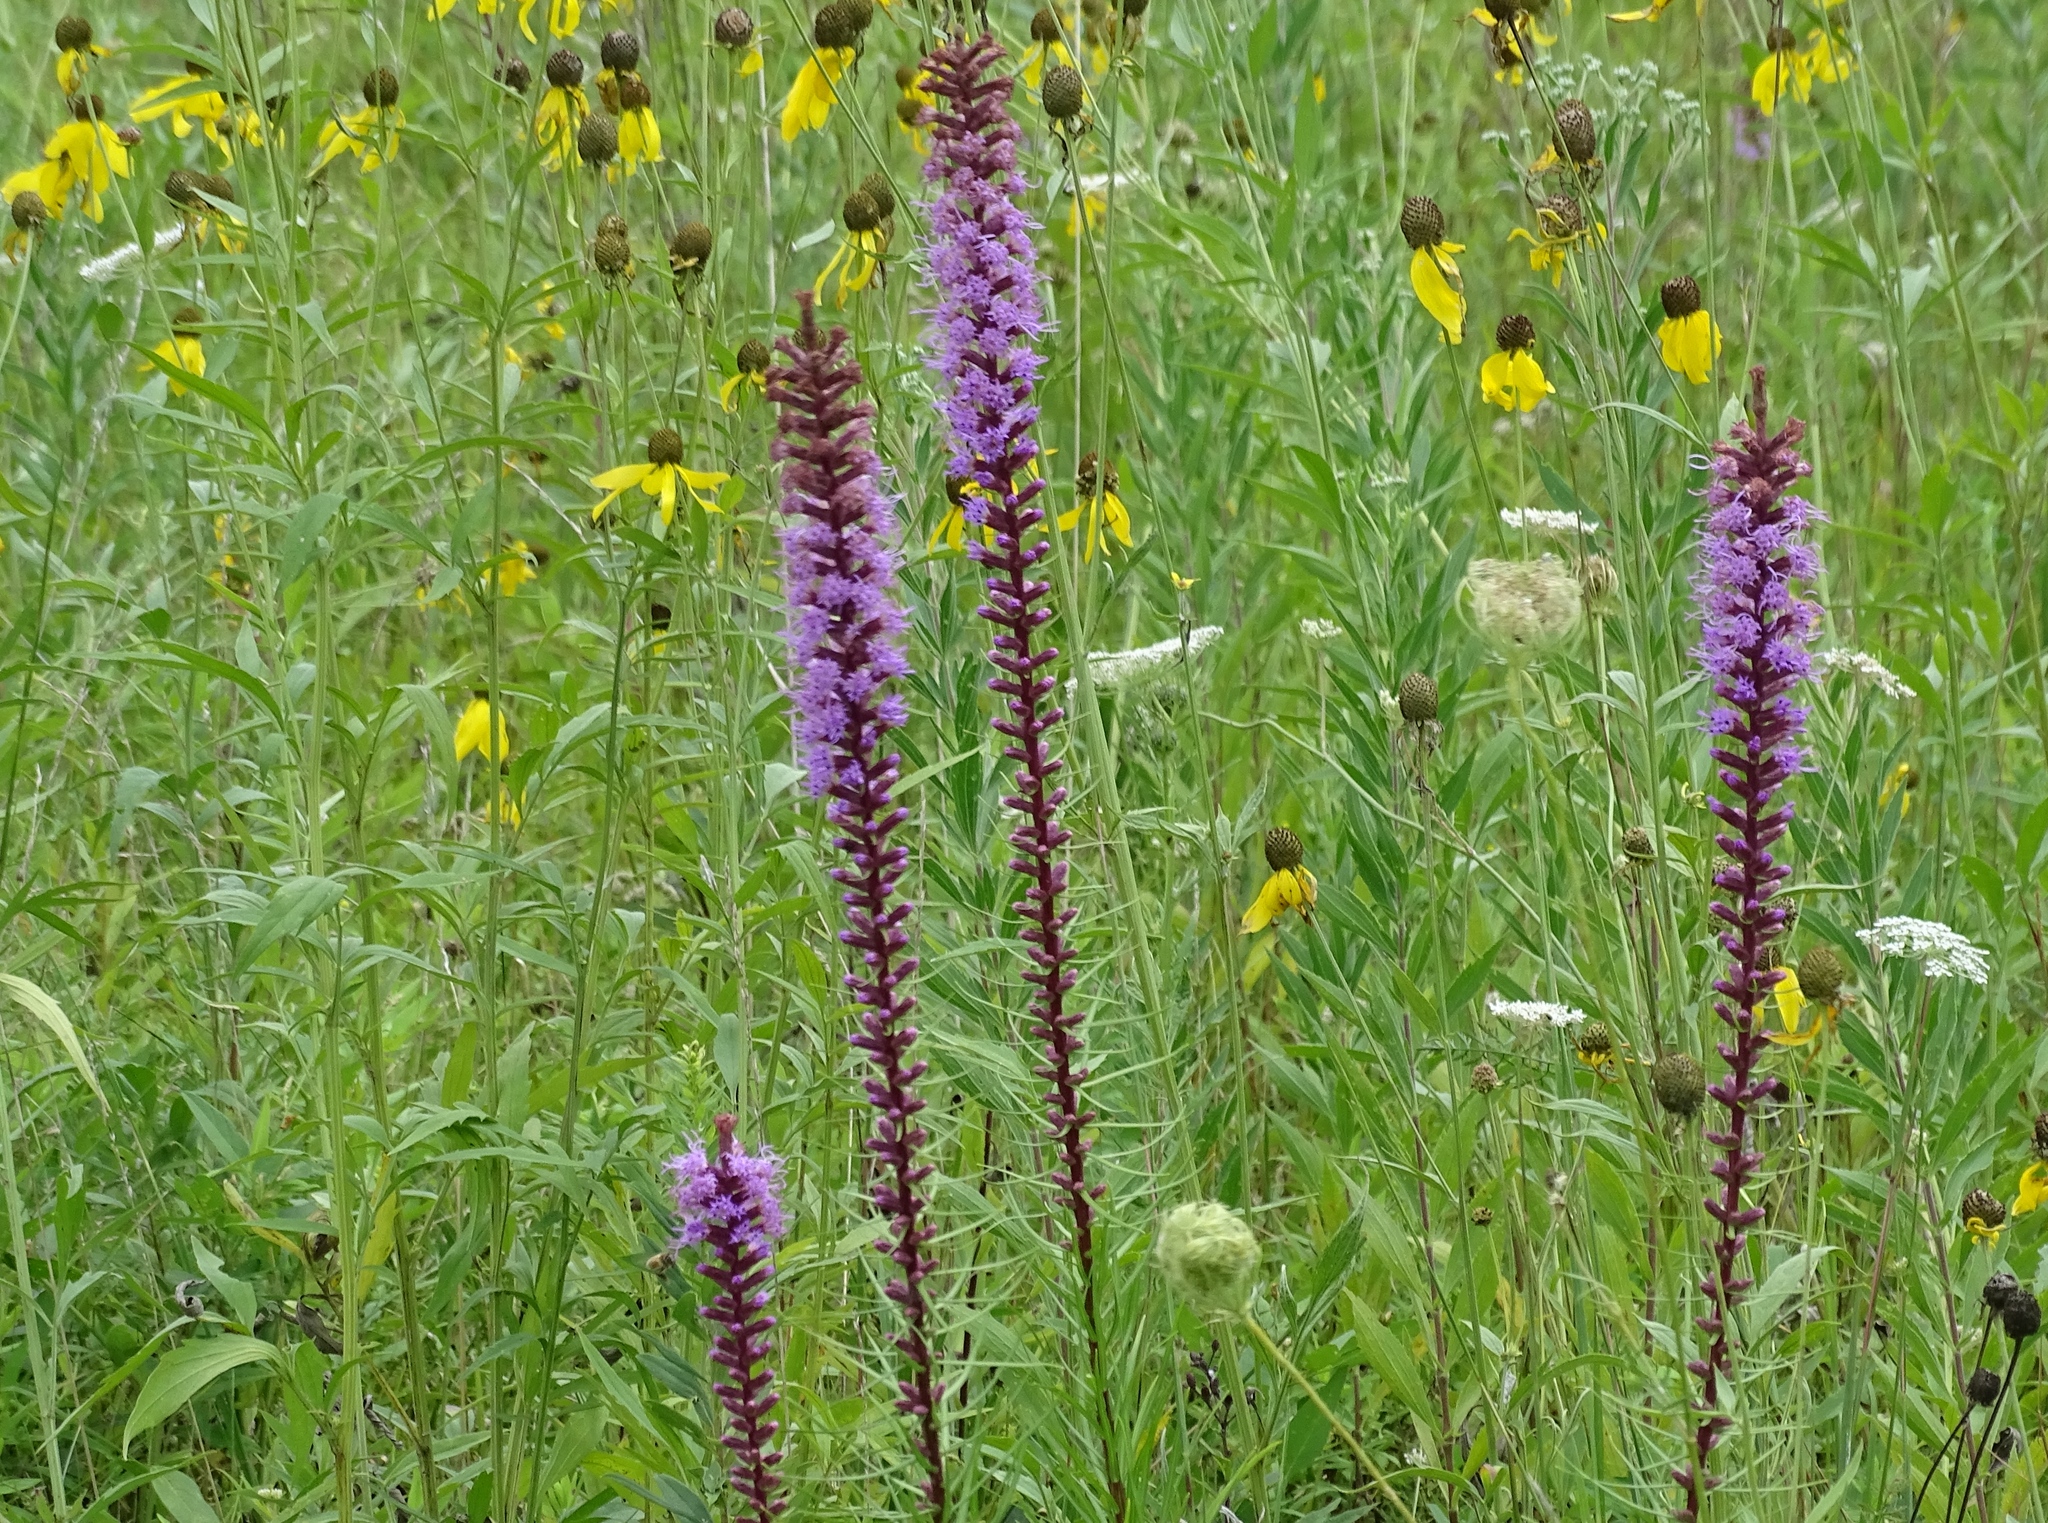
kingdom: Plantae
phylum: Tracheophyta
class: Magnoliopsida
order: Asterales
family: Asteraceae
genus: Liatris
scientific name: Liatris spicata
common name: Florist gayfeather
